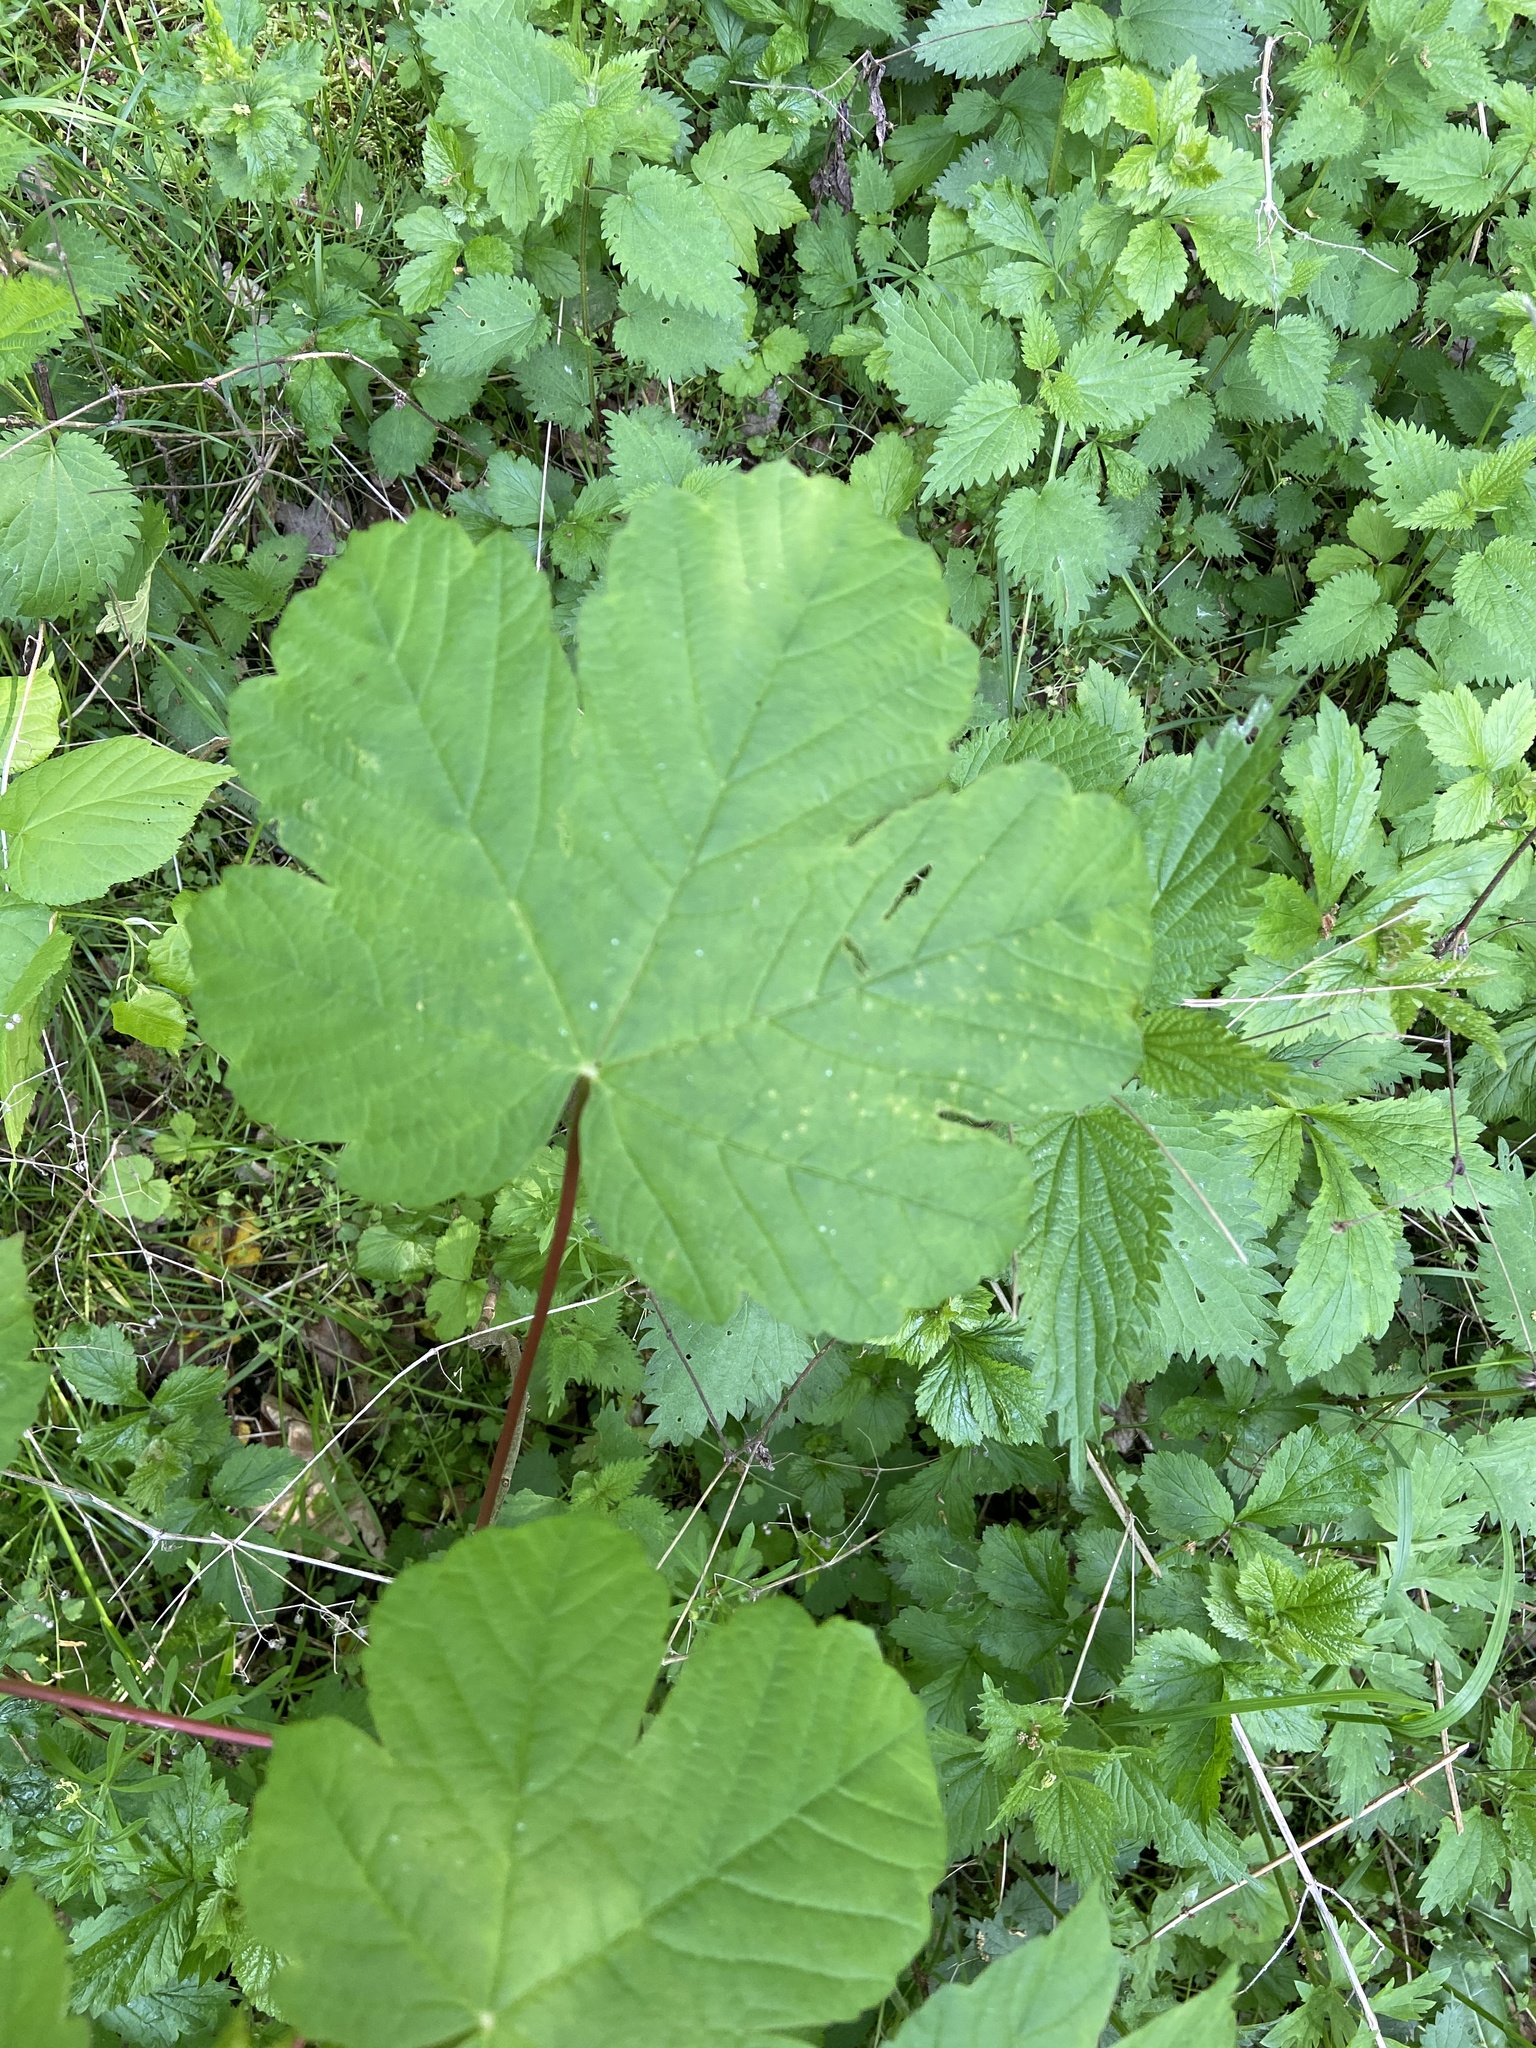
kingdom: Plantae
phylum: Tracheophyta
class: Magnoliopsida
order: Sapindales
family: Sapindaceae
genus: Acer
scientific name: Acer pseudoplatanus
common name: Sycamore
